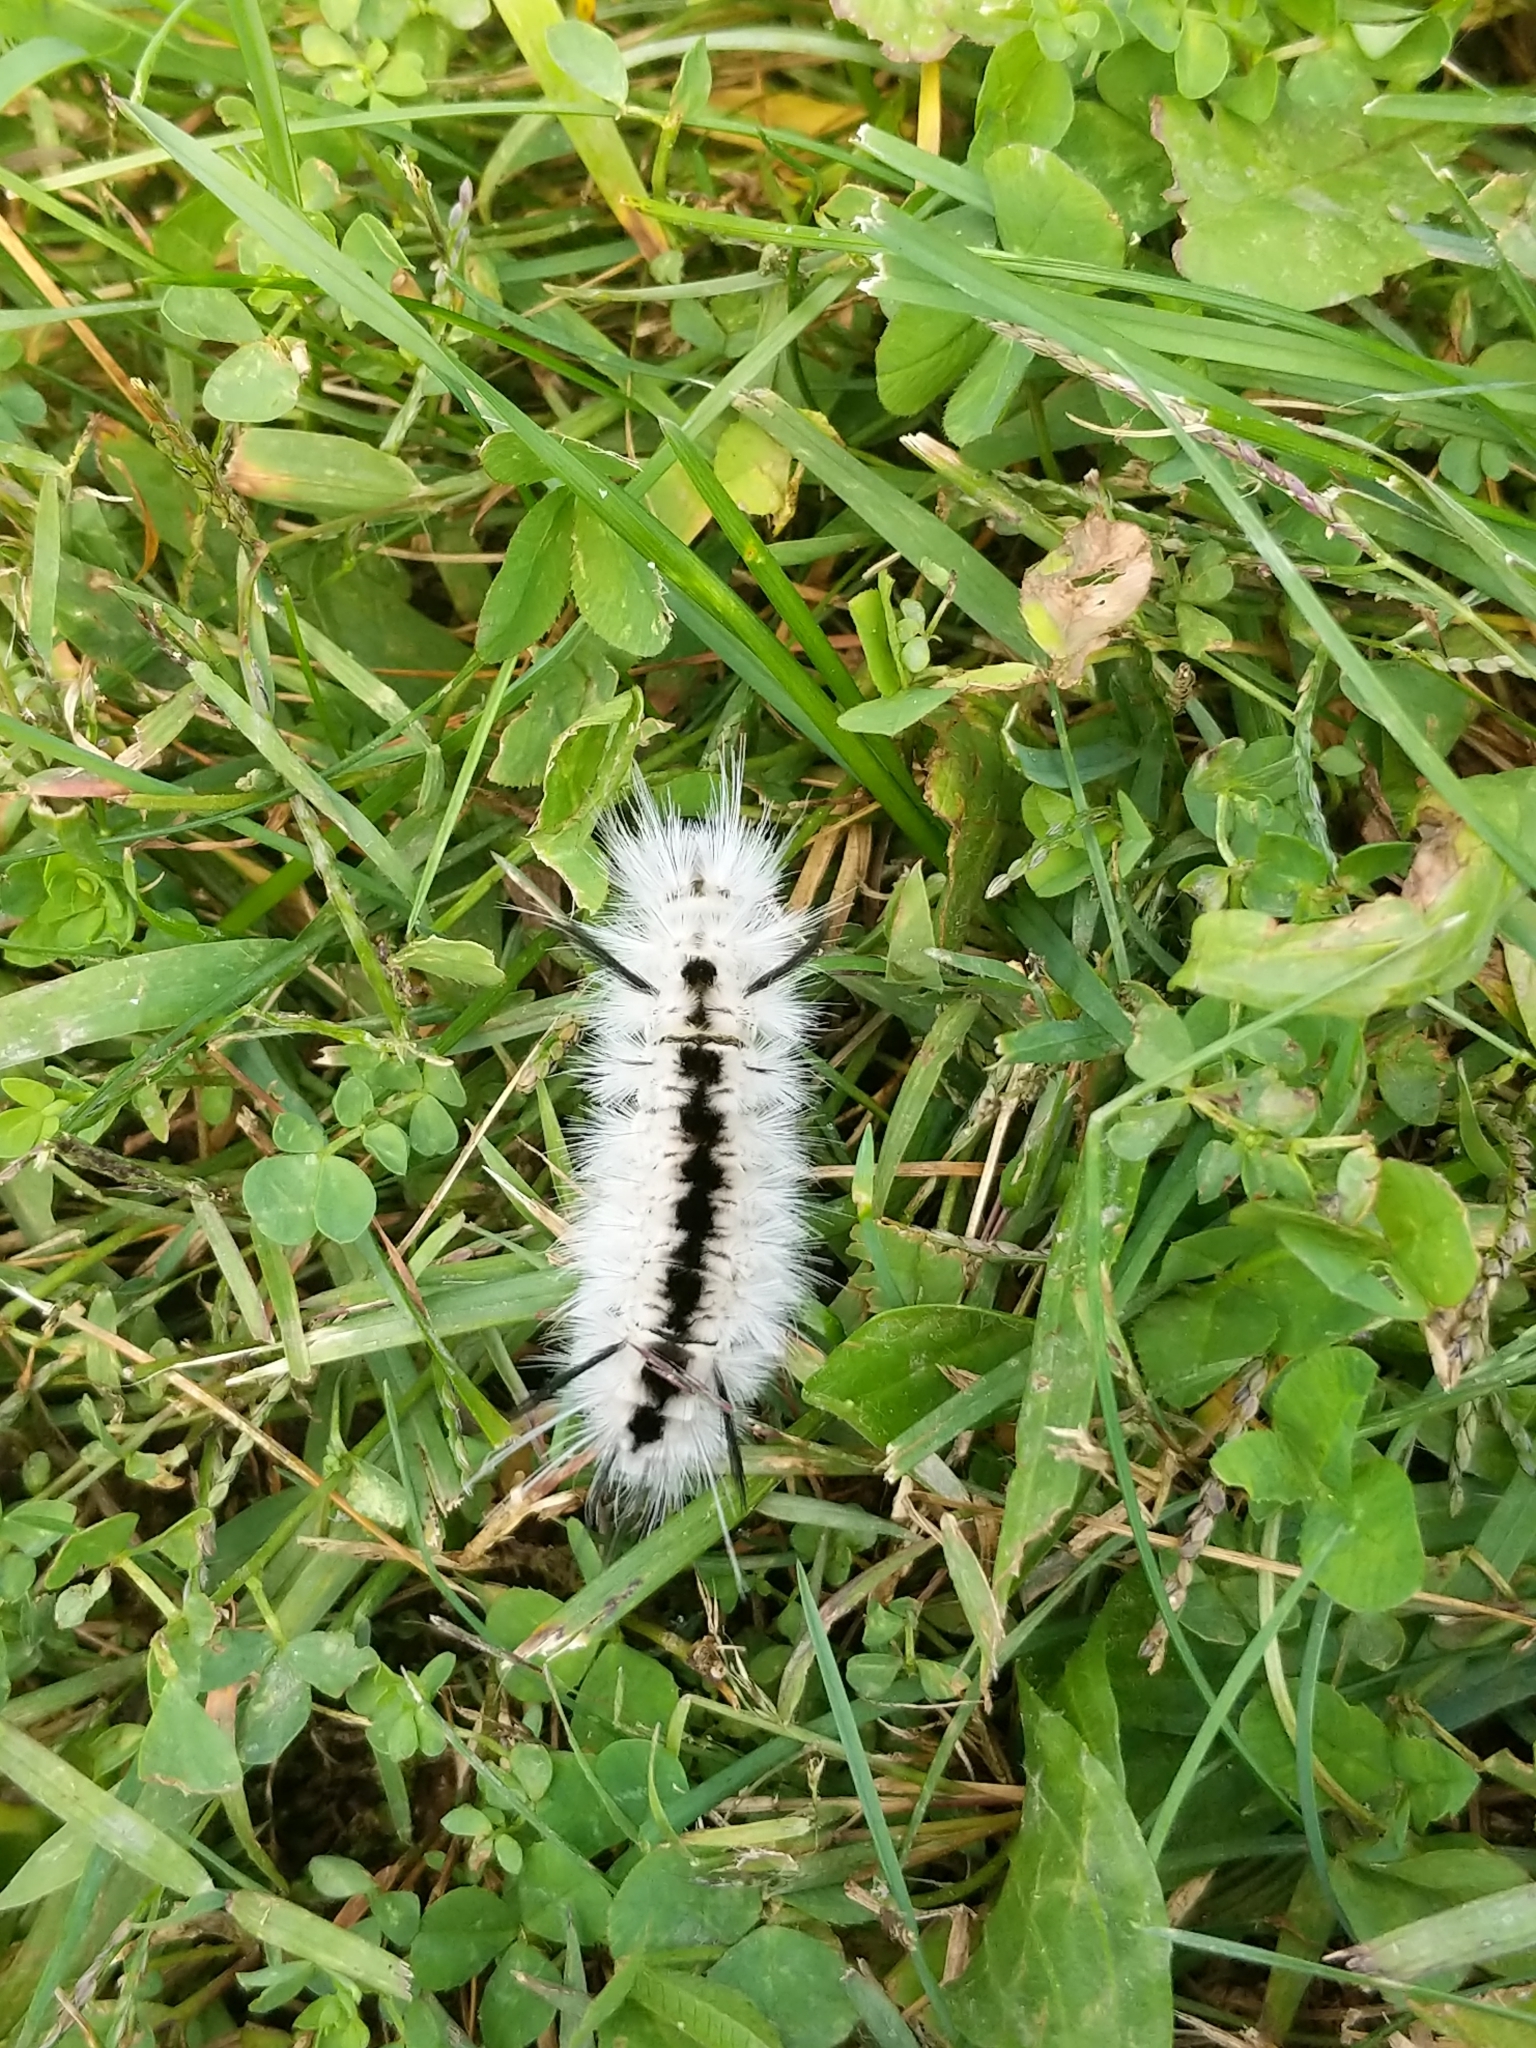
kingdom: Animalia
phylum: Arthropoda
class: Insecta
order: Lepidoptera
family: Erebidae
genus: Lophocampa
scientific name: Lophocampa caryae
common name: Hickory tussock moth
